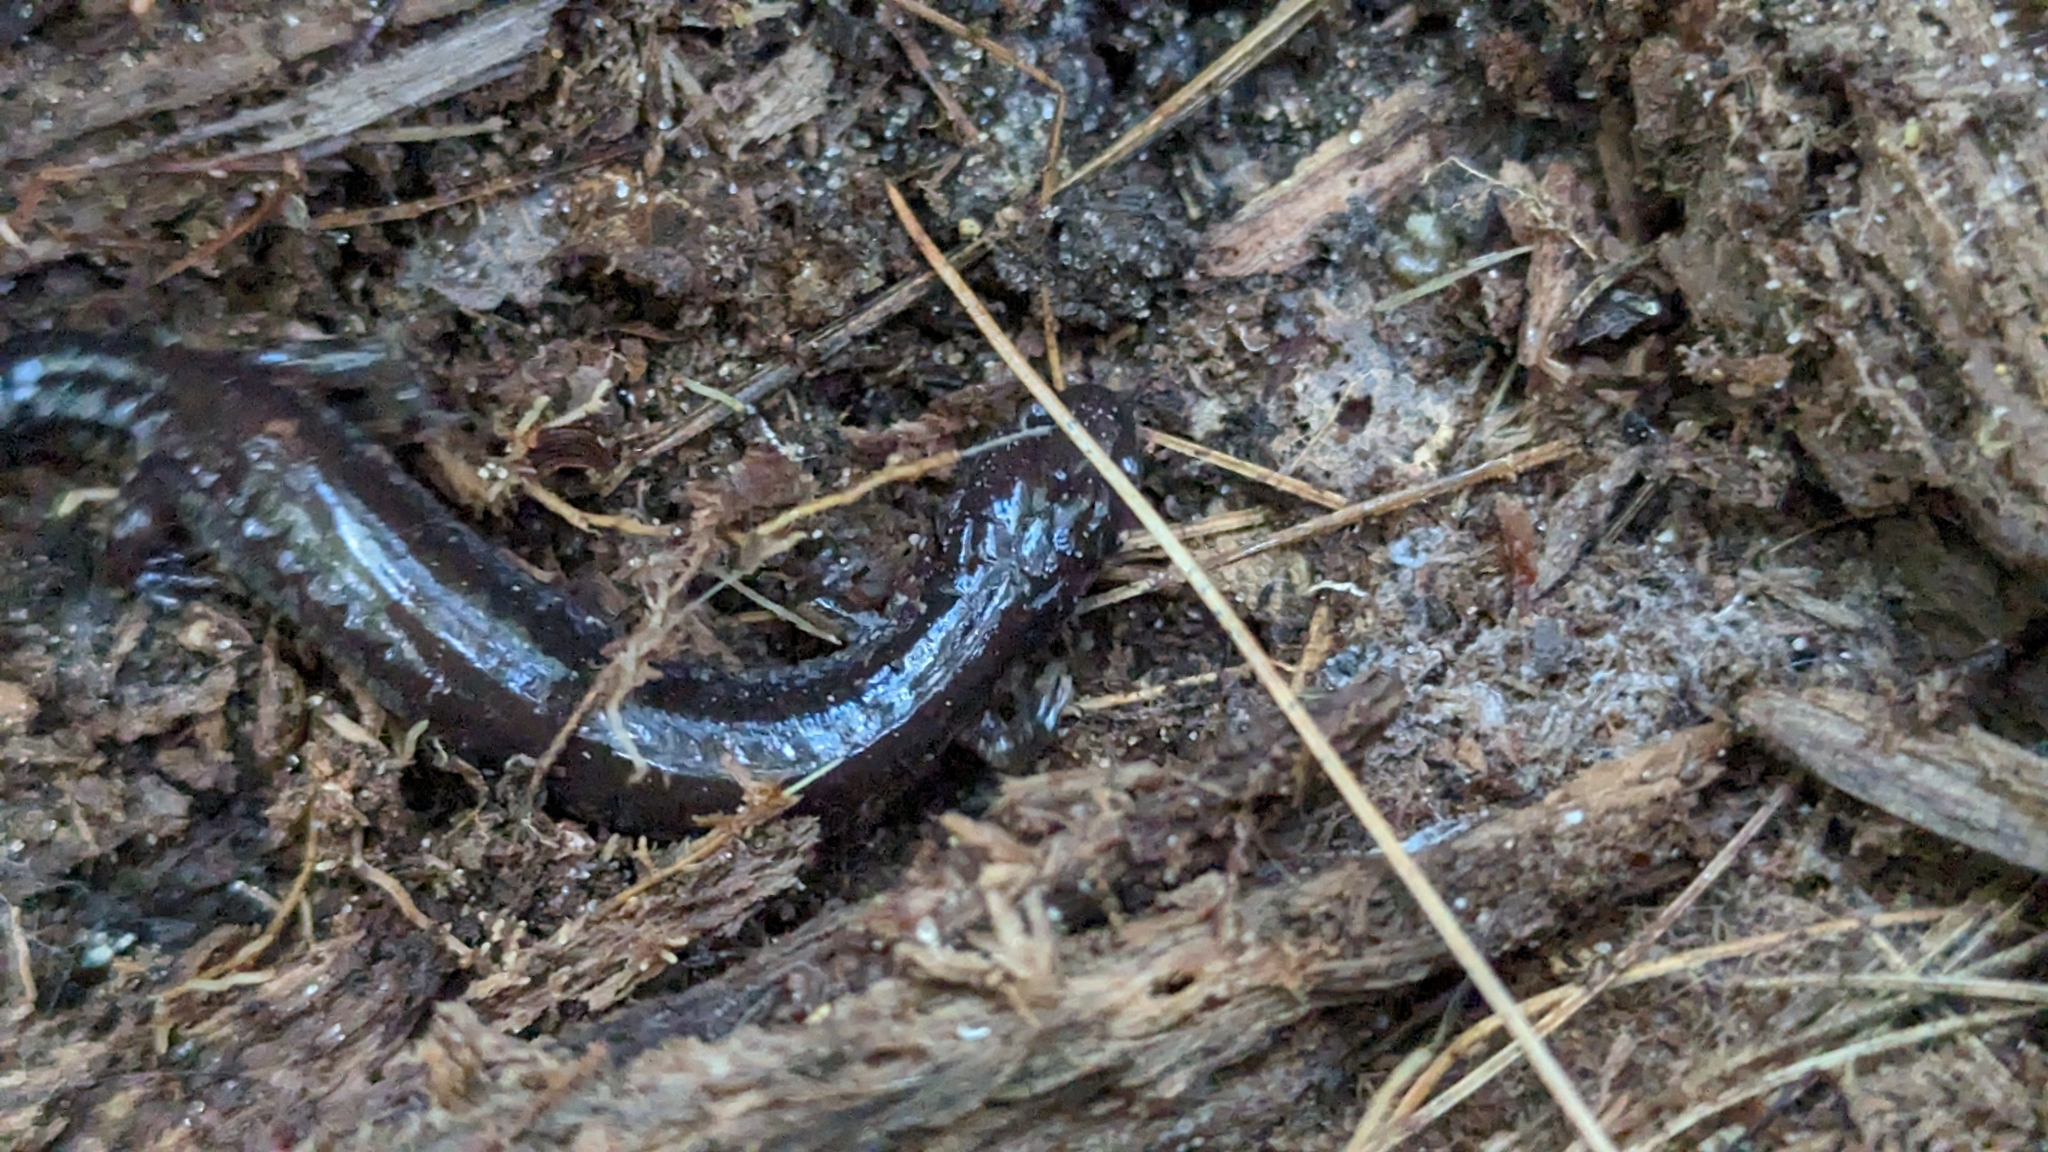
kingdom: Animalia
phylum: Chordata
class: Amphibia
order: Caudata
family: Plethodontidae
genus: Plethodon
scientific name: Plethodon cinereus
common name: Redback salamander
